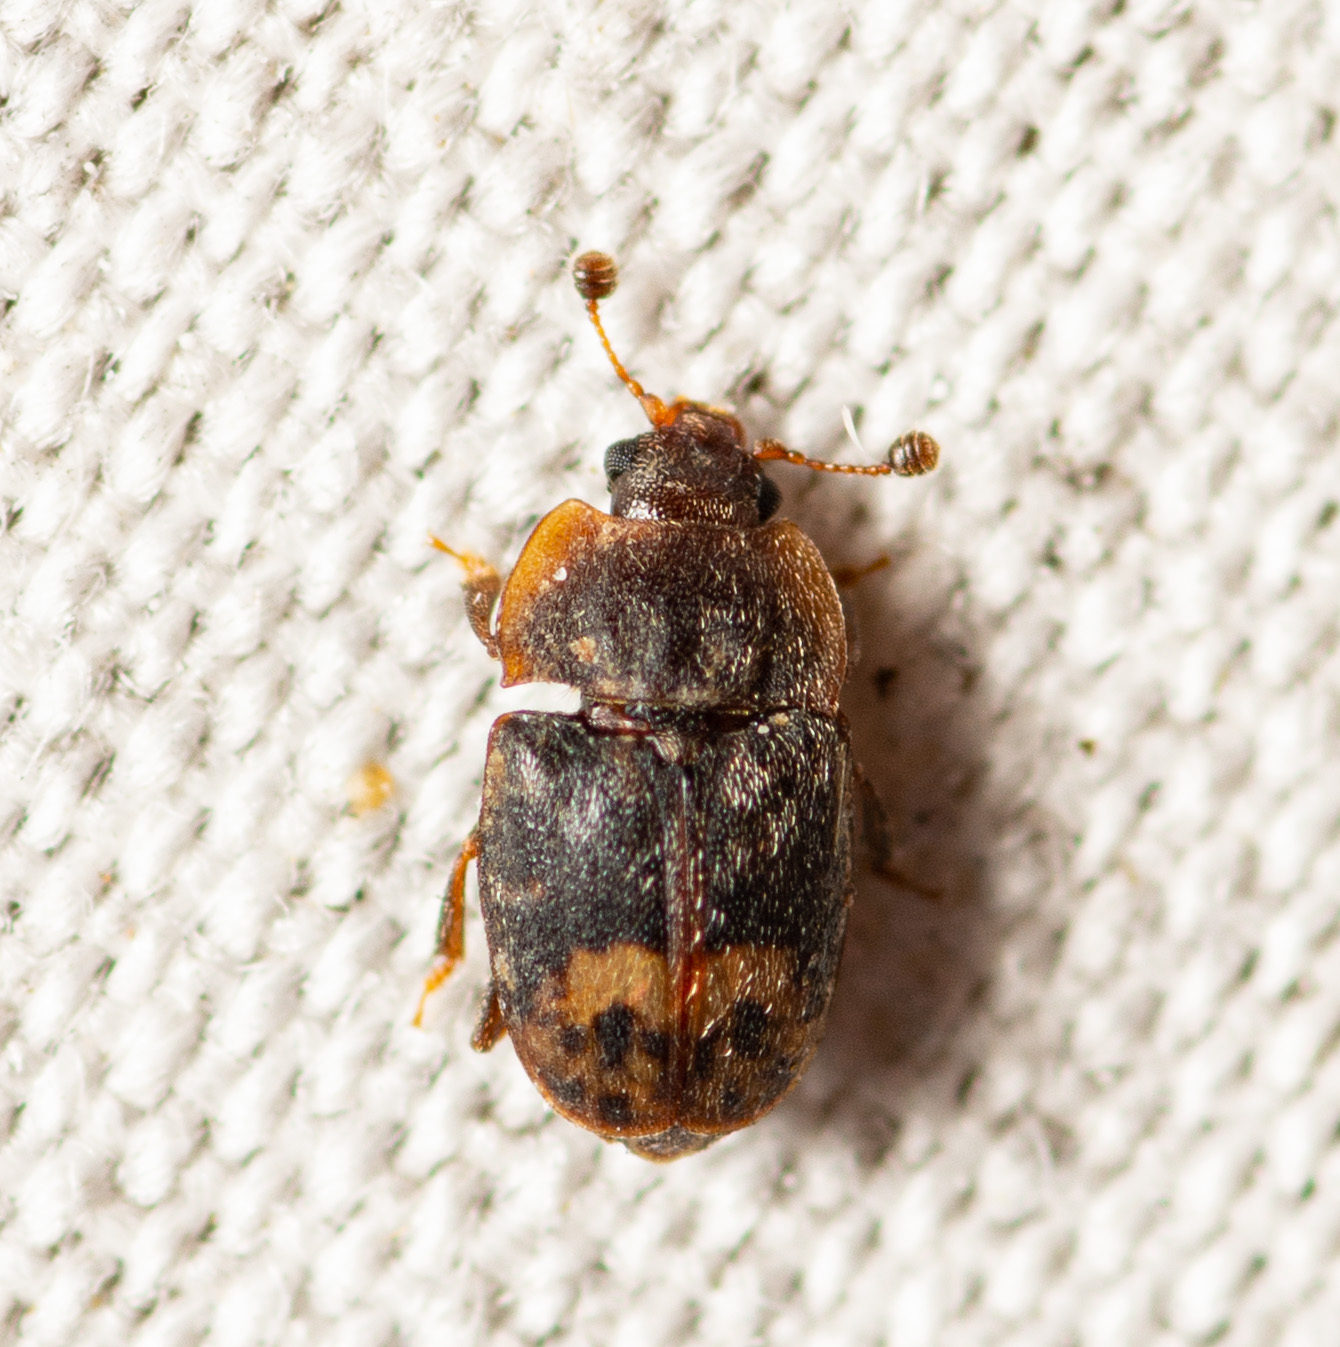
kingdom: Animalia
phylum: Arthropoda
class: Insecta
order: Coleoptera
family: Nitidulidae
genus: Omosita
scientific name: Omosita nearctica
